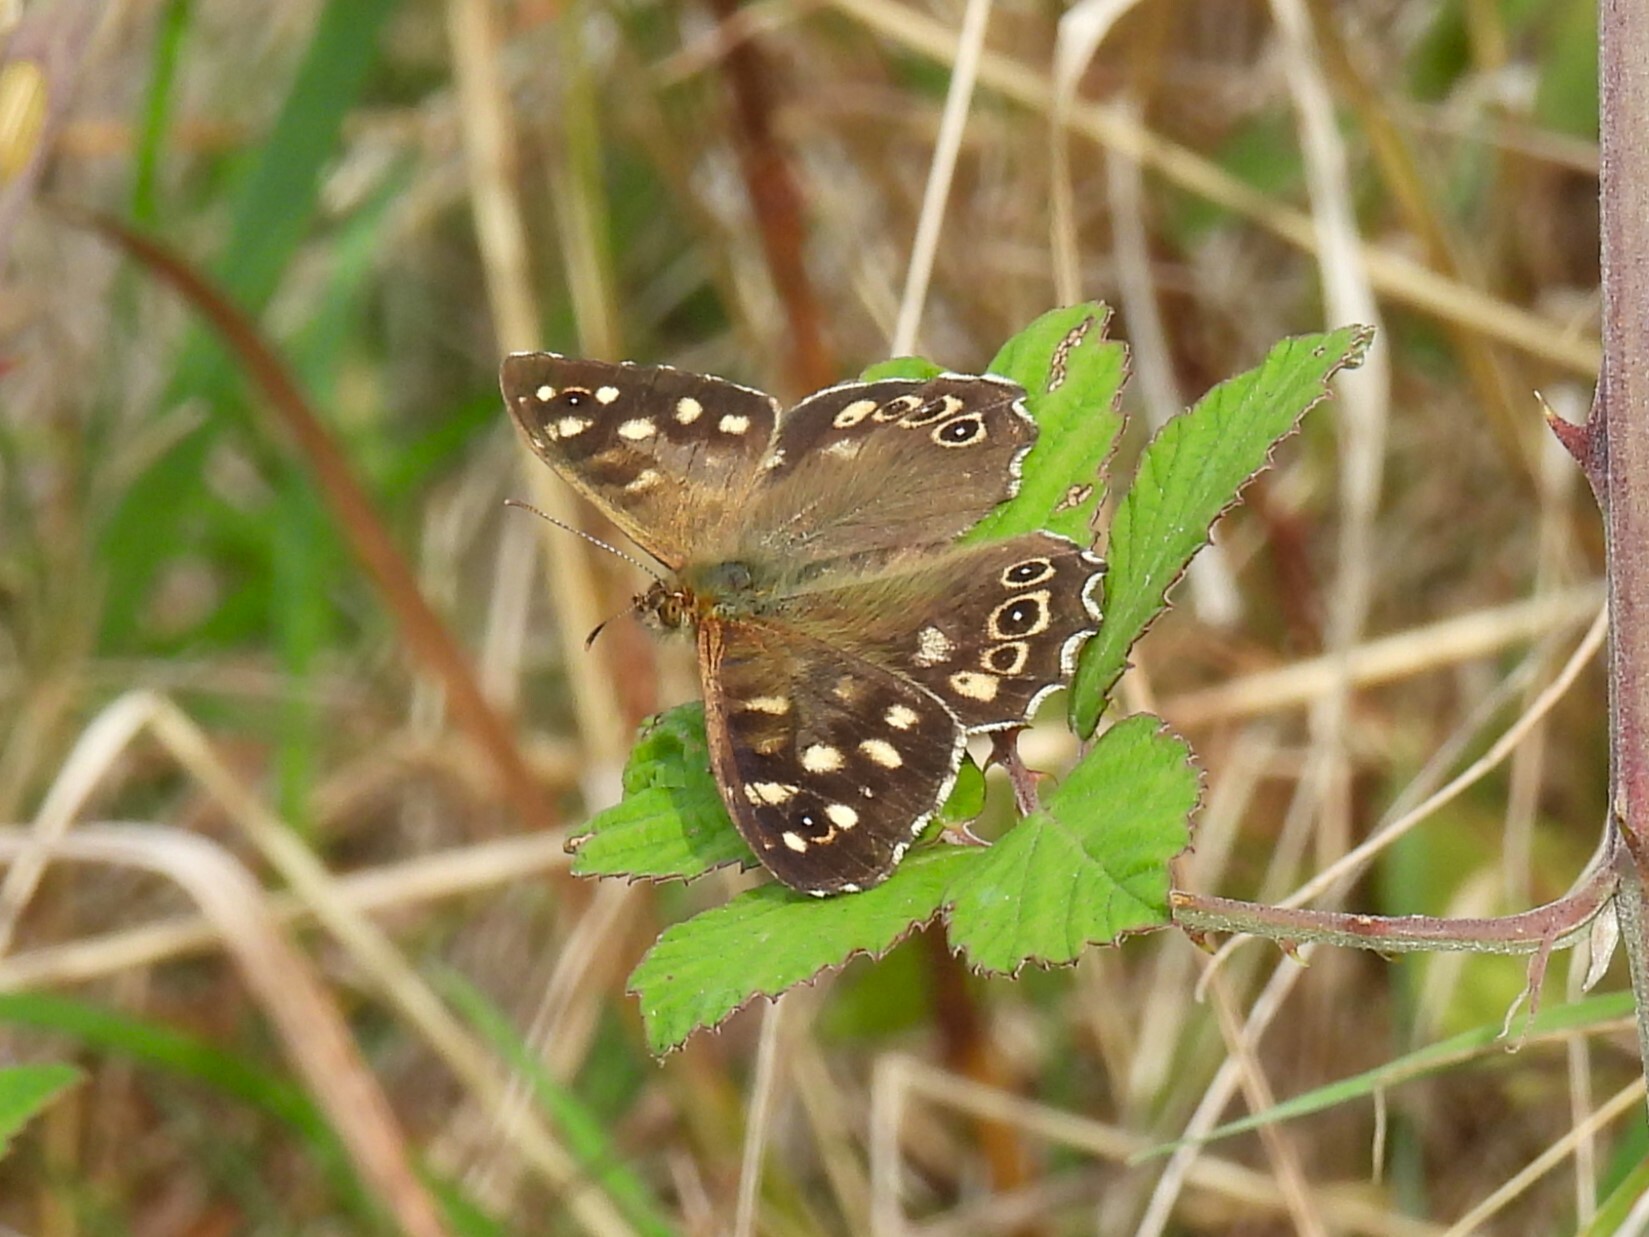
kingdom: Animalia
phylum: Arthropoda
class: Insecta
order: Lepidoptera
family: Nymphalidae
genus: Pararge
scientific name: Pararge aegeria
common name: Speckled wood
